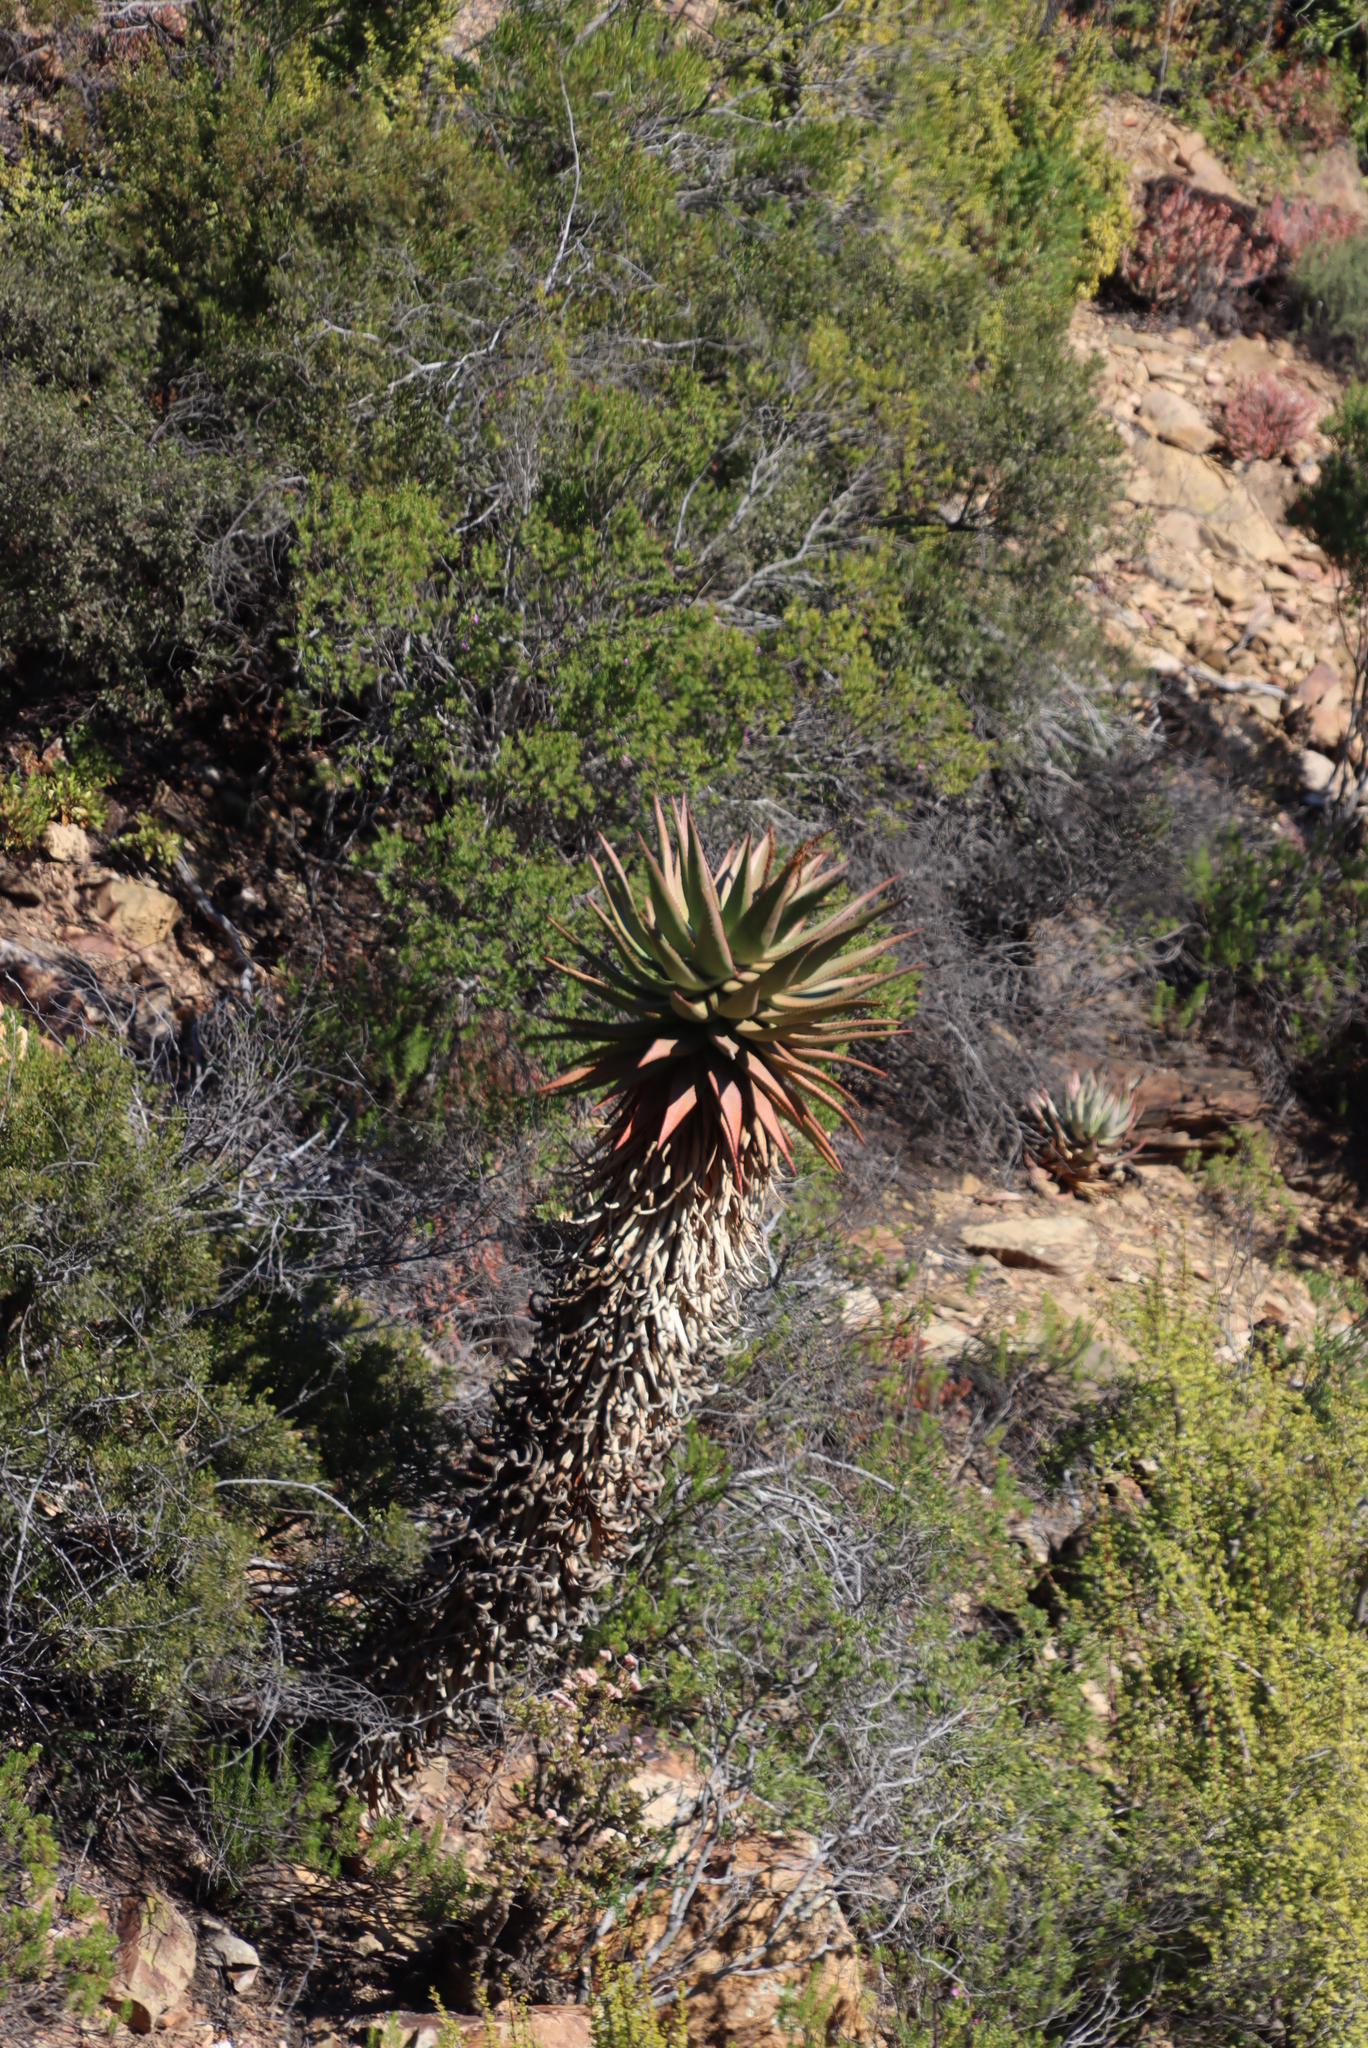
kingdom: Plantae
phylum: Tracheophyta
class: Liliopsida
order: Asparagales
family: Asphodelaceae
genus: Aloe
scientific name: Aloe ferox
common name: Bitter aloe
